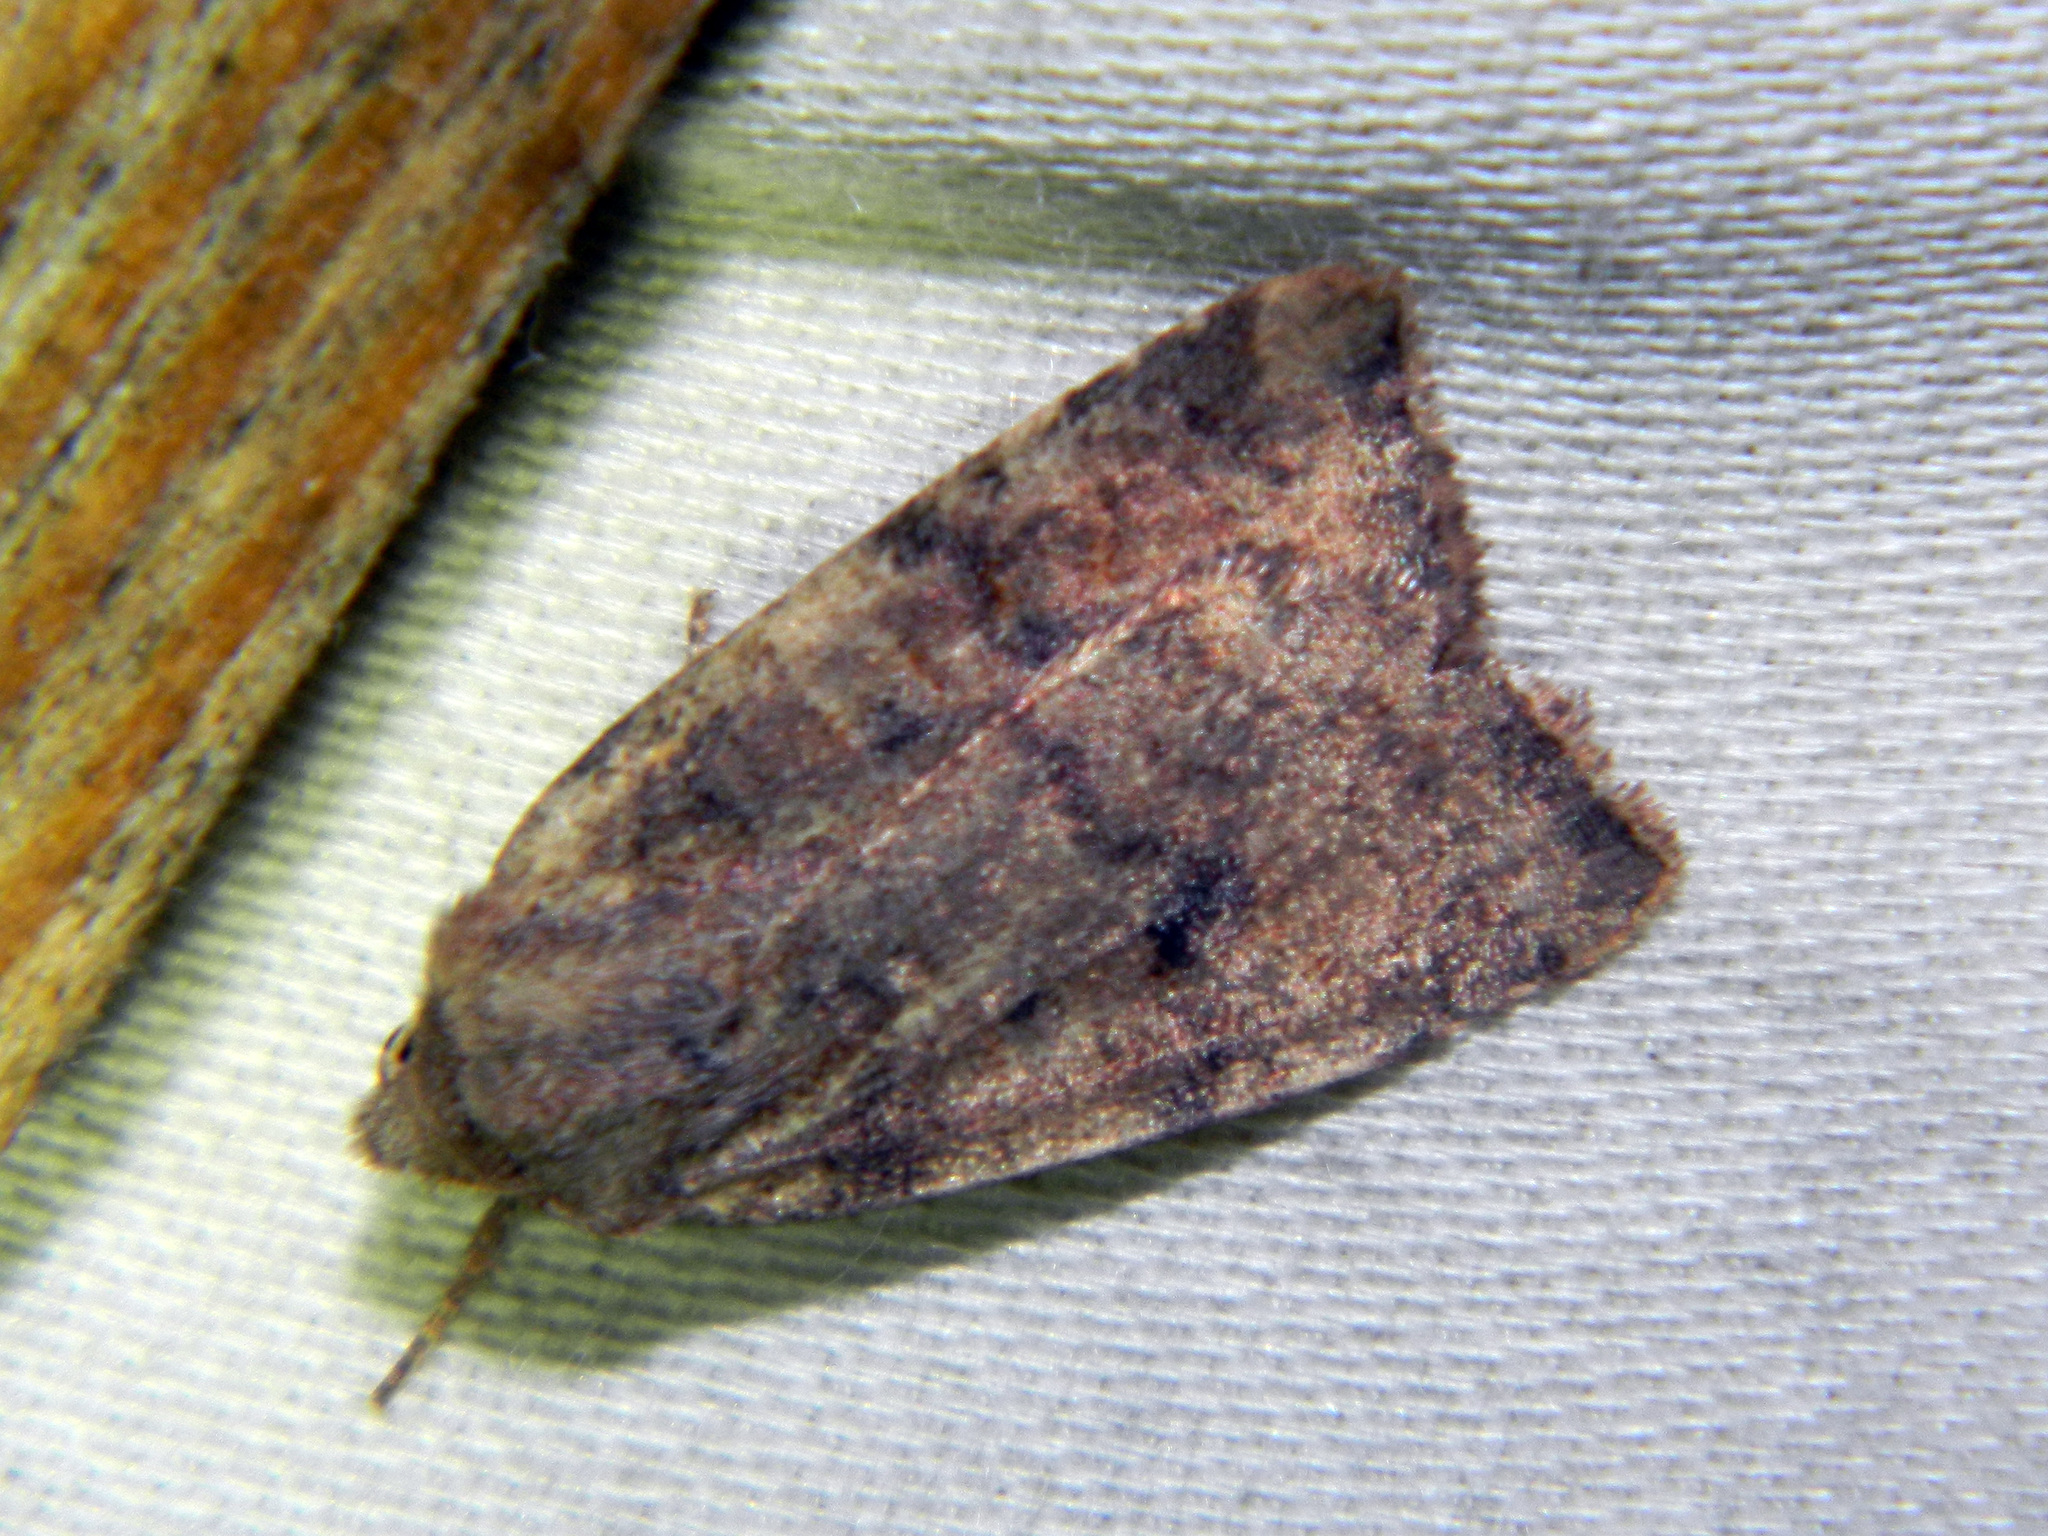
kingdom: Animalia
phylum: Arthropoda
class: Insecta
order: Lepidoptera
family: Noctuidae
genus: Anathix
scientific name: Anathix puta
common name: Puta sallow
